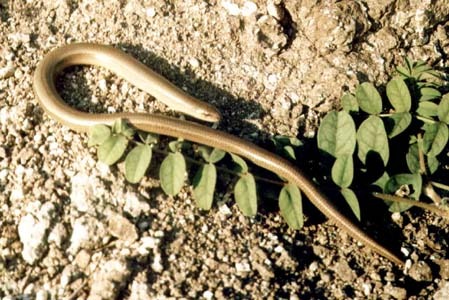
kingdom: Animalia
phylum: Chordata
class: Squamata
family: Anguidae
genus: Anguis
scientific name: Anguis colchica
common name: Slow worm
